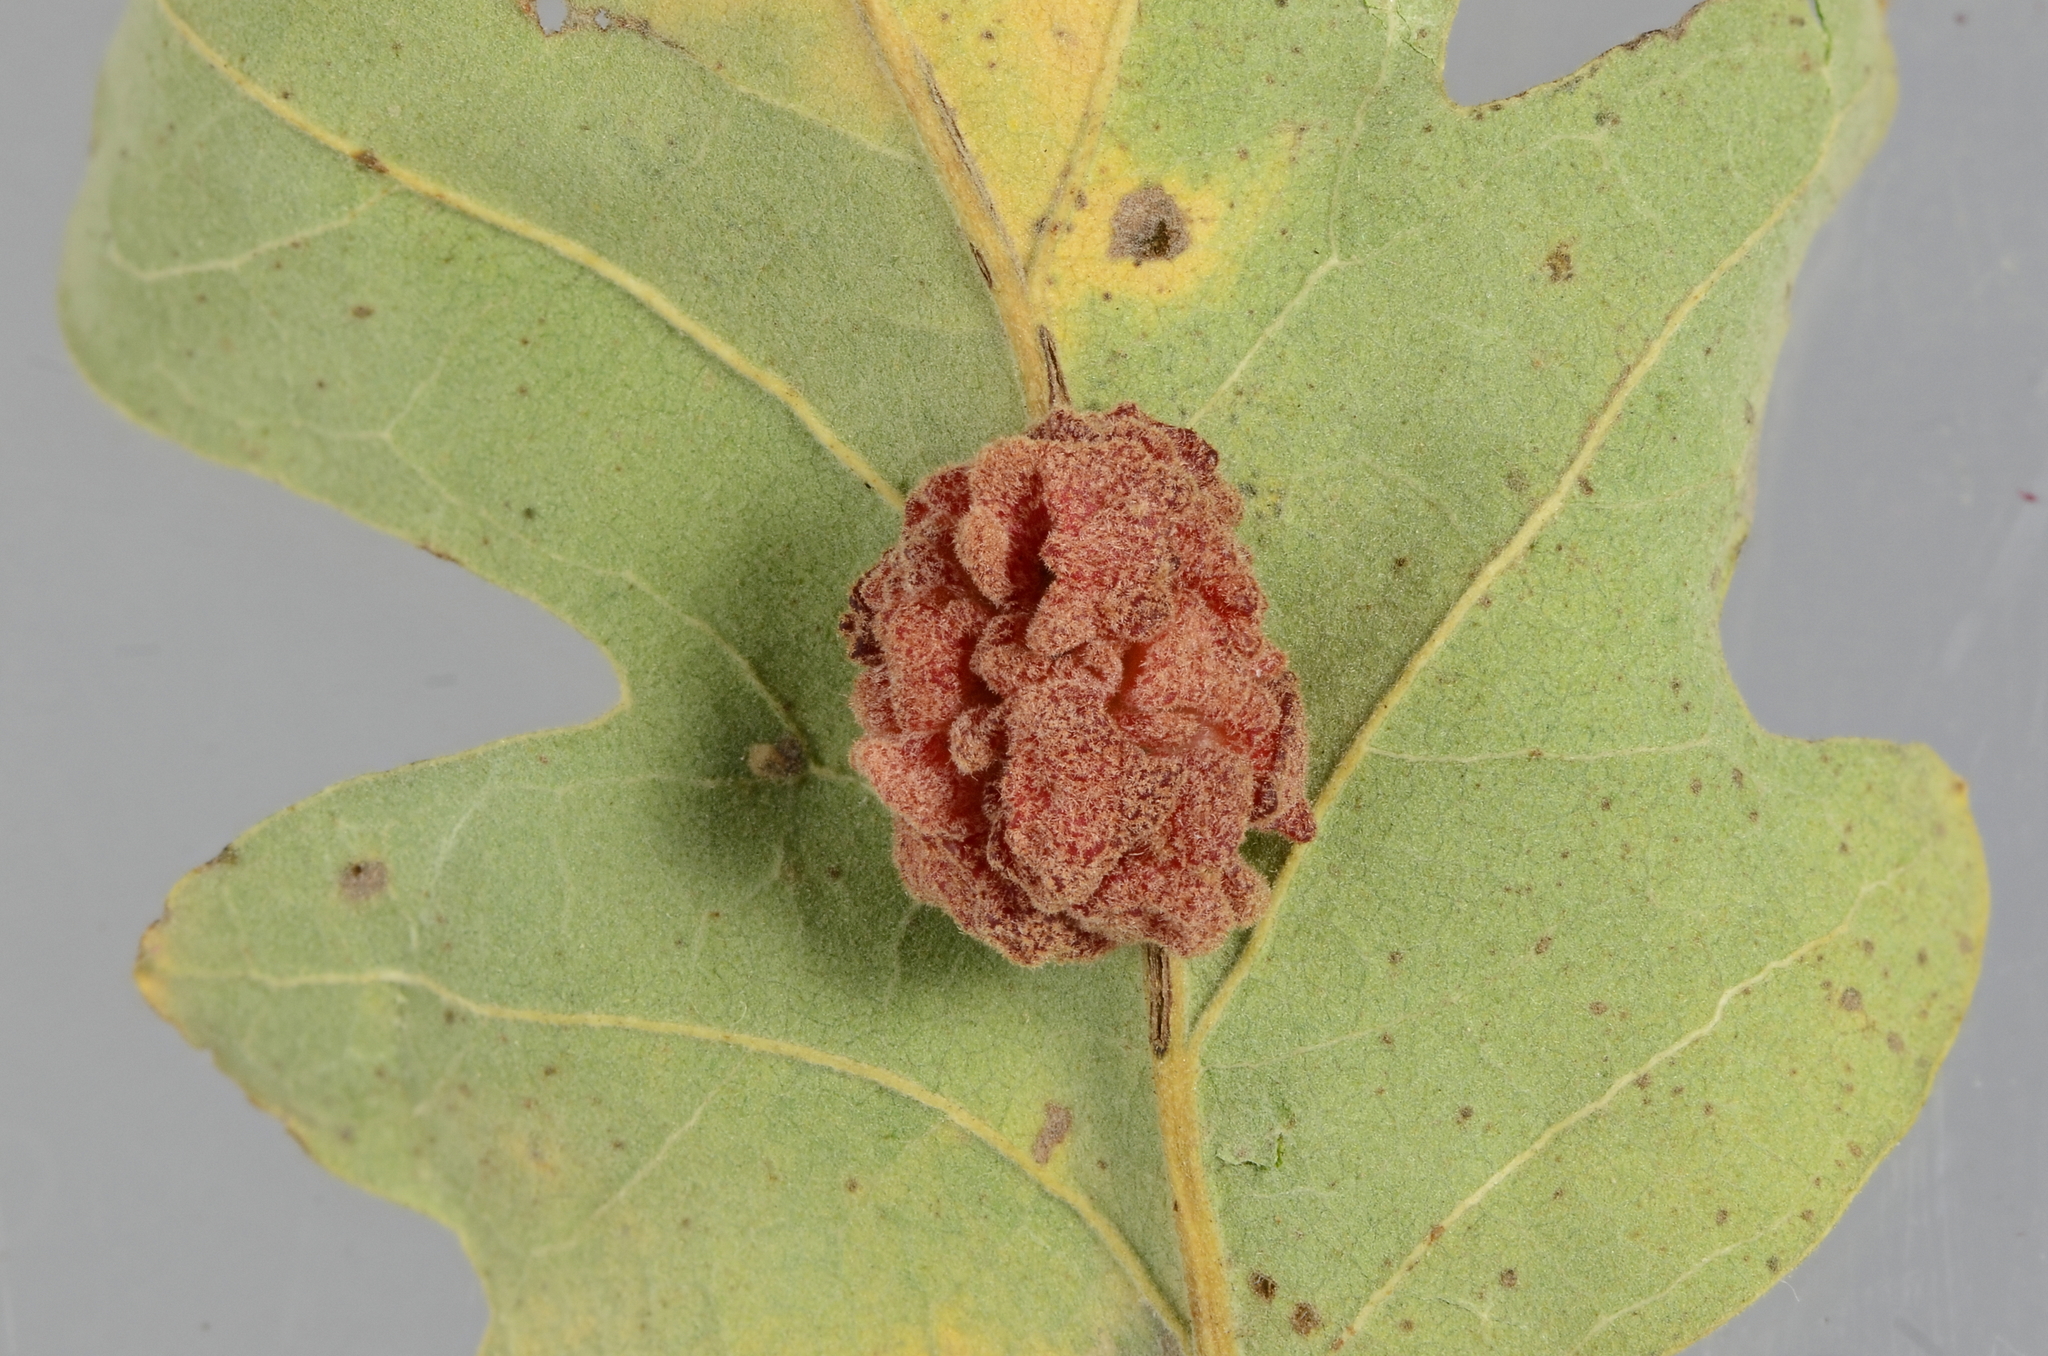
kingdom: Animalia
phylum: Arthropoda
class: Insecta
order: Hymenoptera
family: Cynipidae
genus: Andricus
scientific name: Andricus
